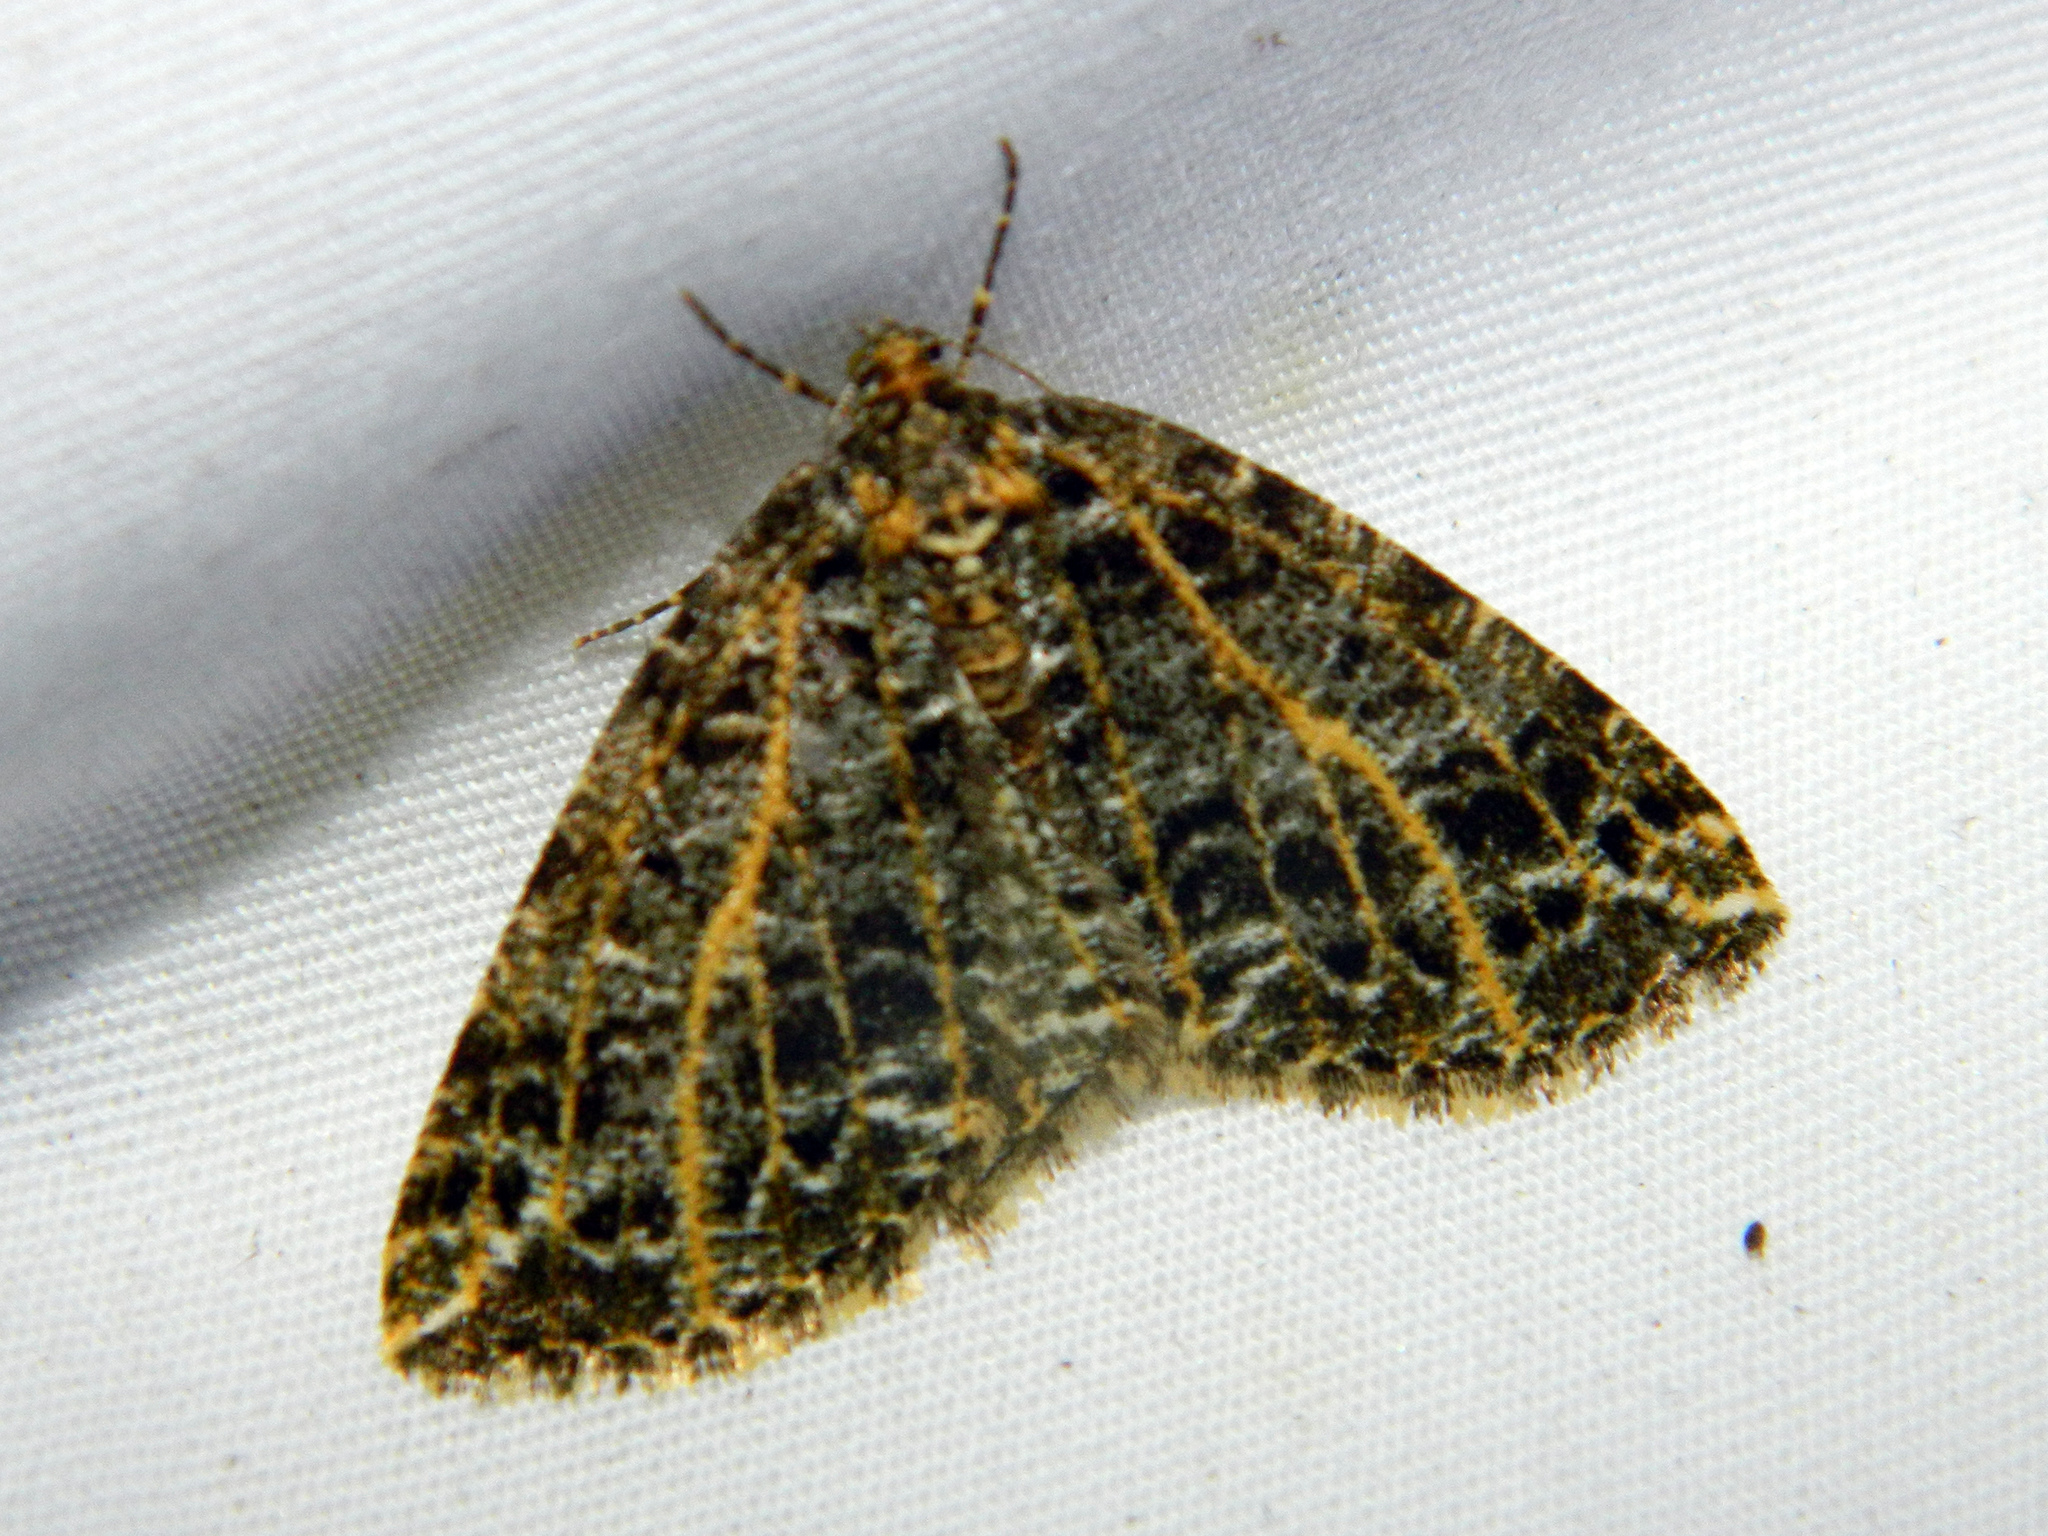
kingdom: Animalia
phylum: Arthropoda
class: Insecta
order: Lepidoptera
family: Geometridae
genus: Orthofidonia
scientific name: Orthofidonia flavivenata
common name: Yellow-veined geometer moth
